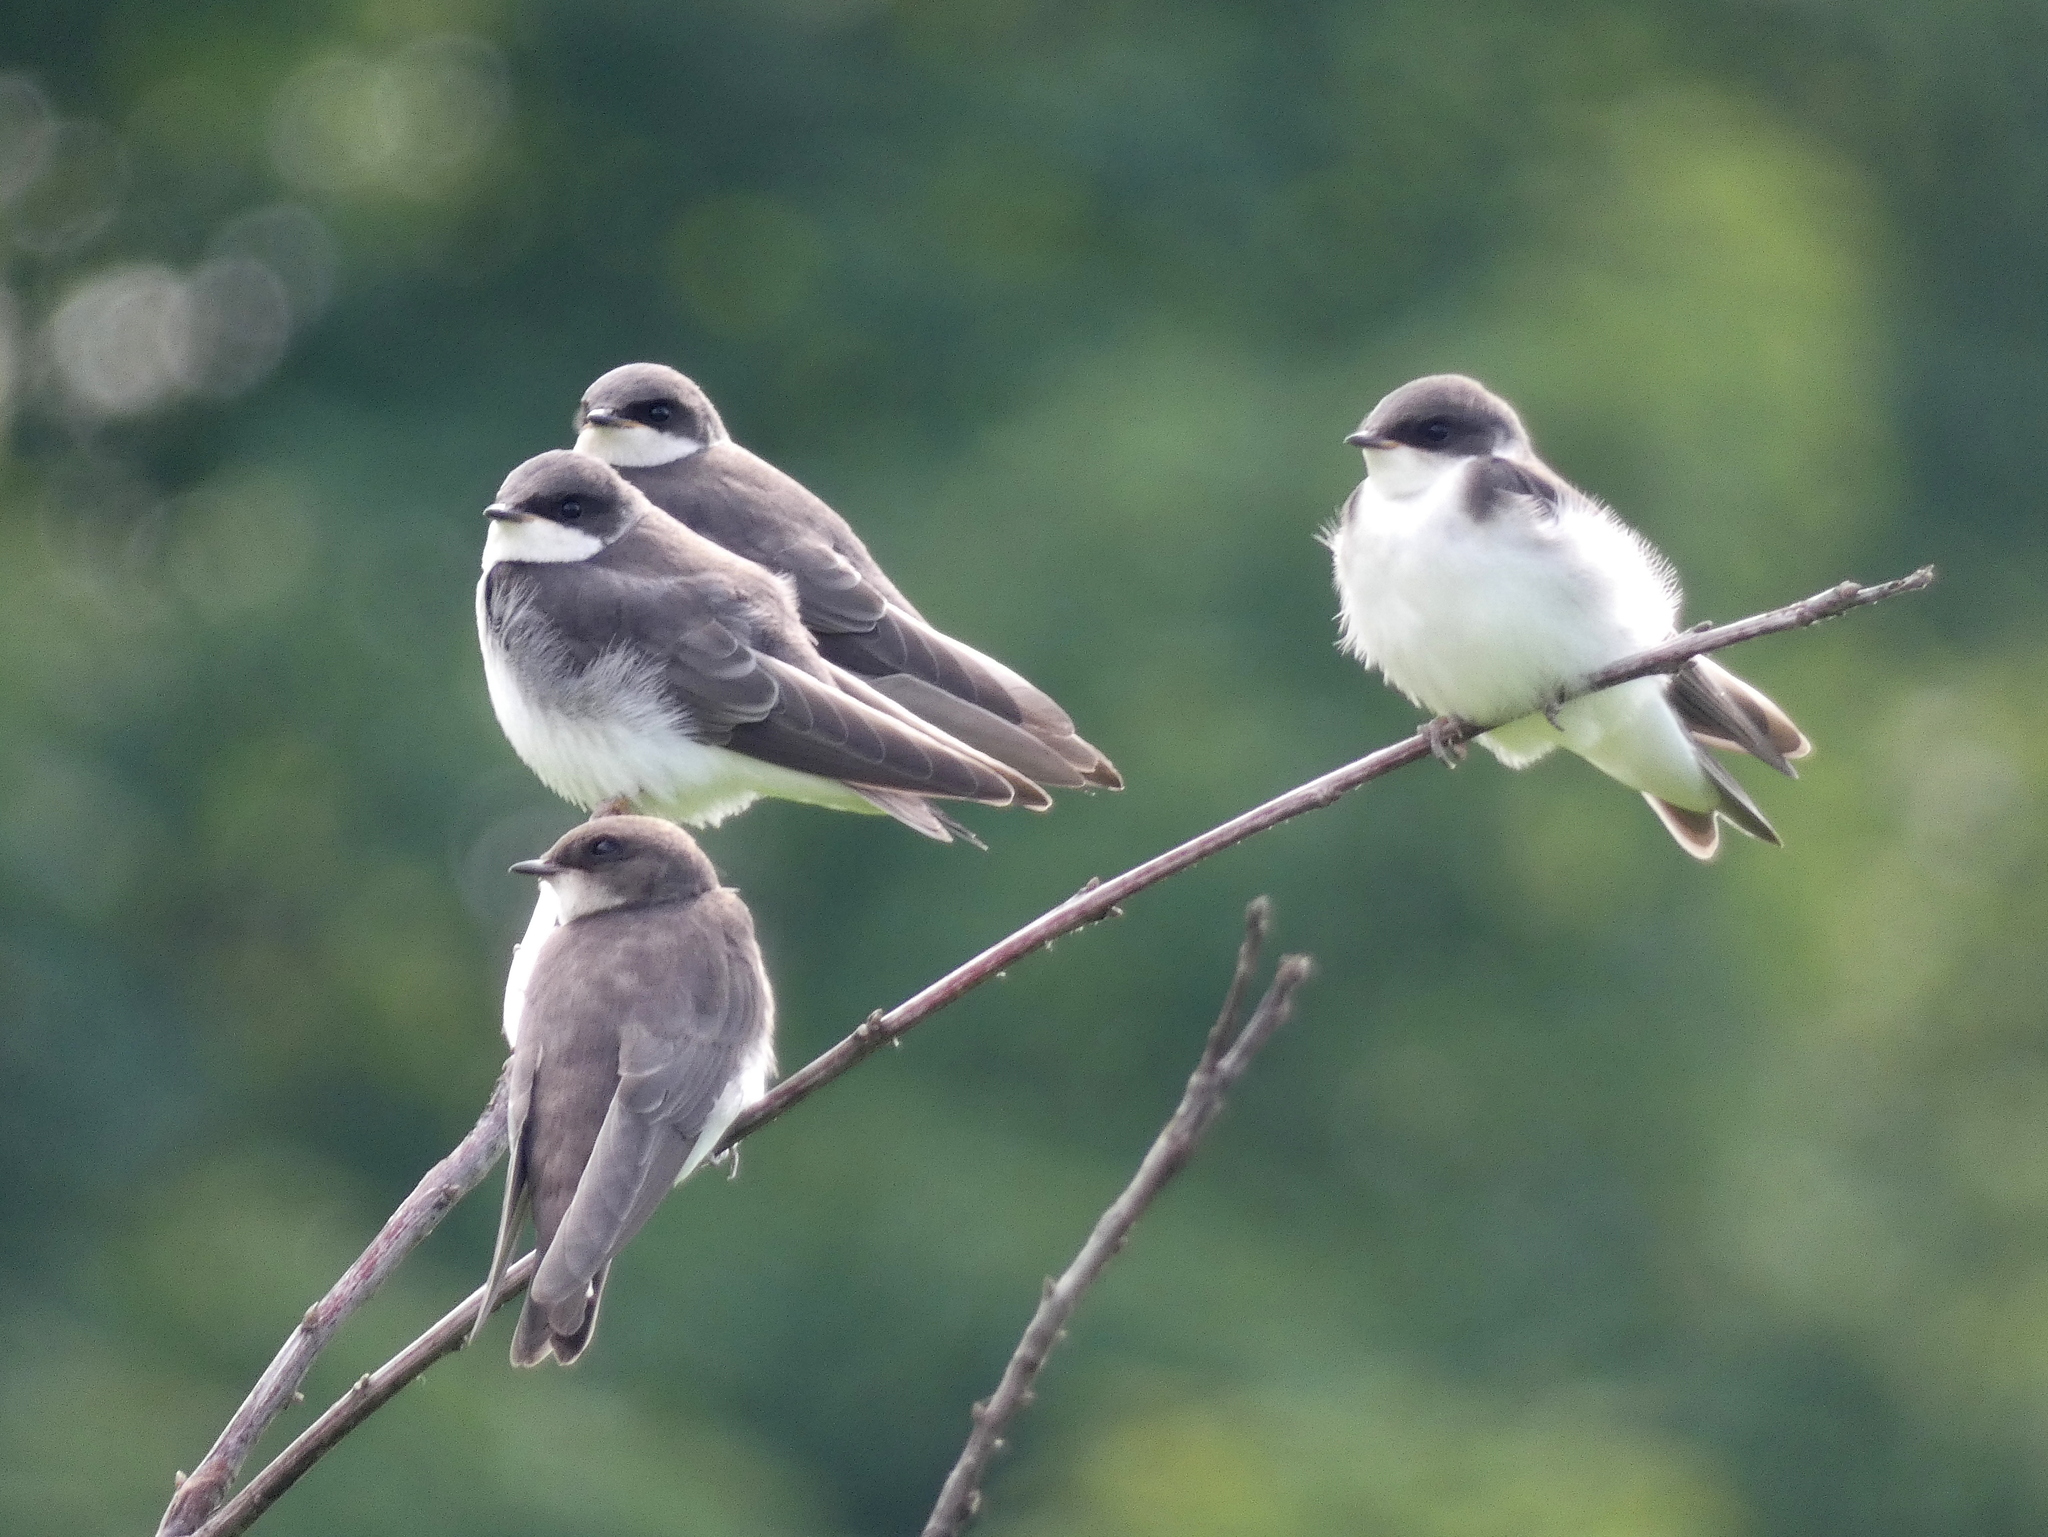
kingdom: Animalia
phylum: Chordata
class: Aves
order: Passeriformes
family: Hirundinidae
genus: Tachycineta
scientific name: Tachycineta bicolor
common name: Tree swallow
